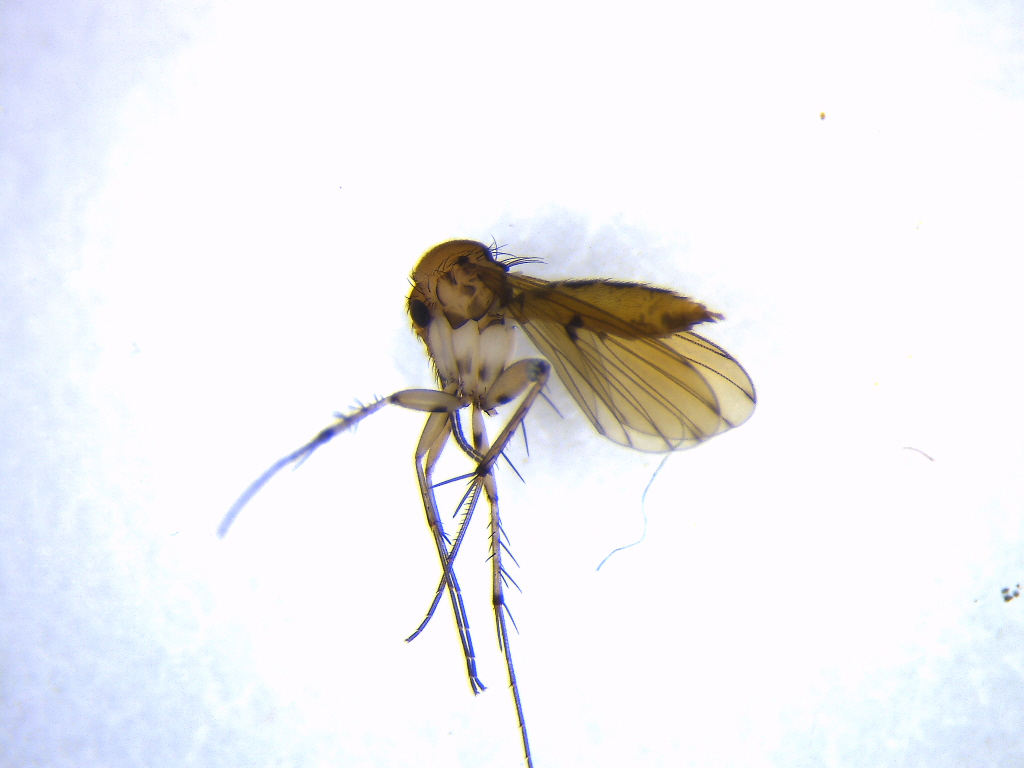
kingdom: Animalia
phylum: Arthropoda
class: Insecta
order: Diptera
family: Mycetophilidae
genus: Mycetophila
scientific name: Mycetophila marginepunctata
